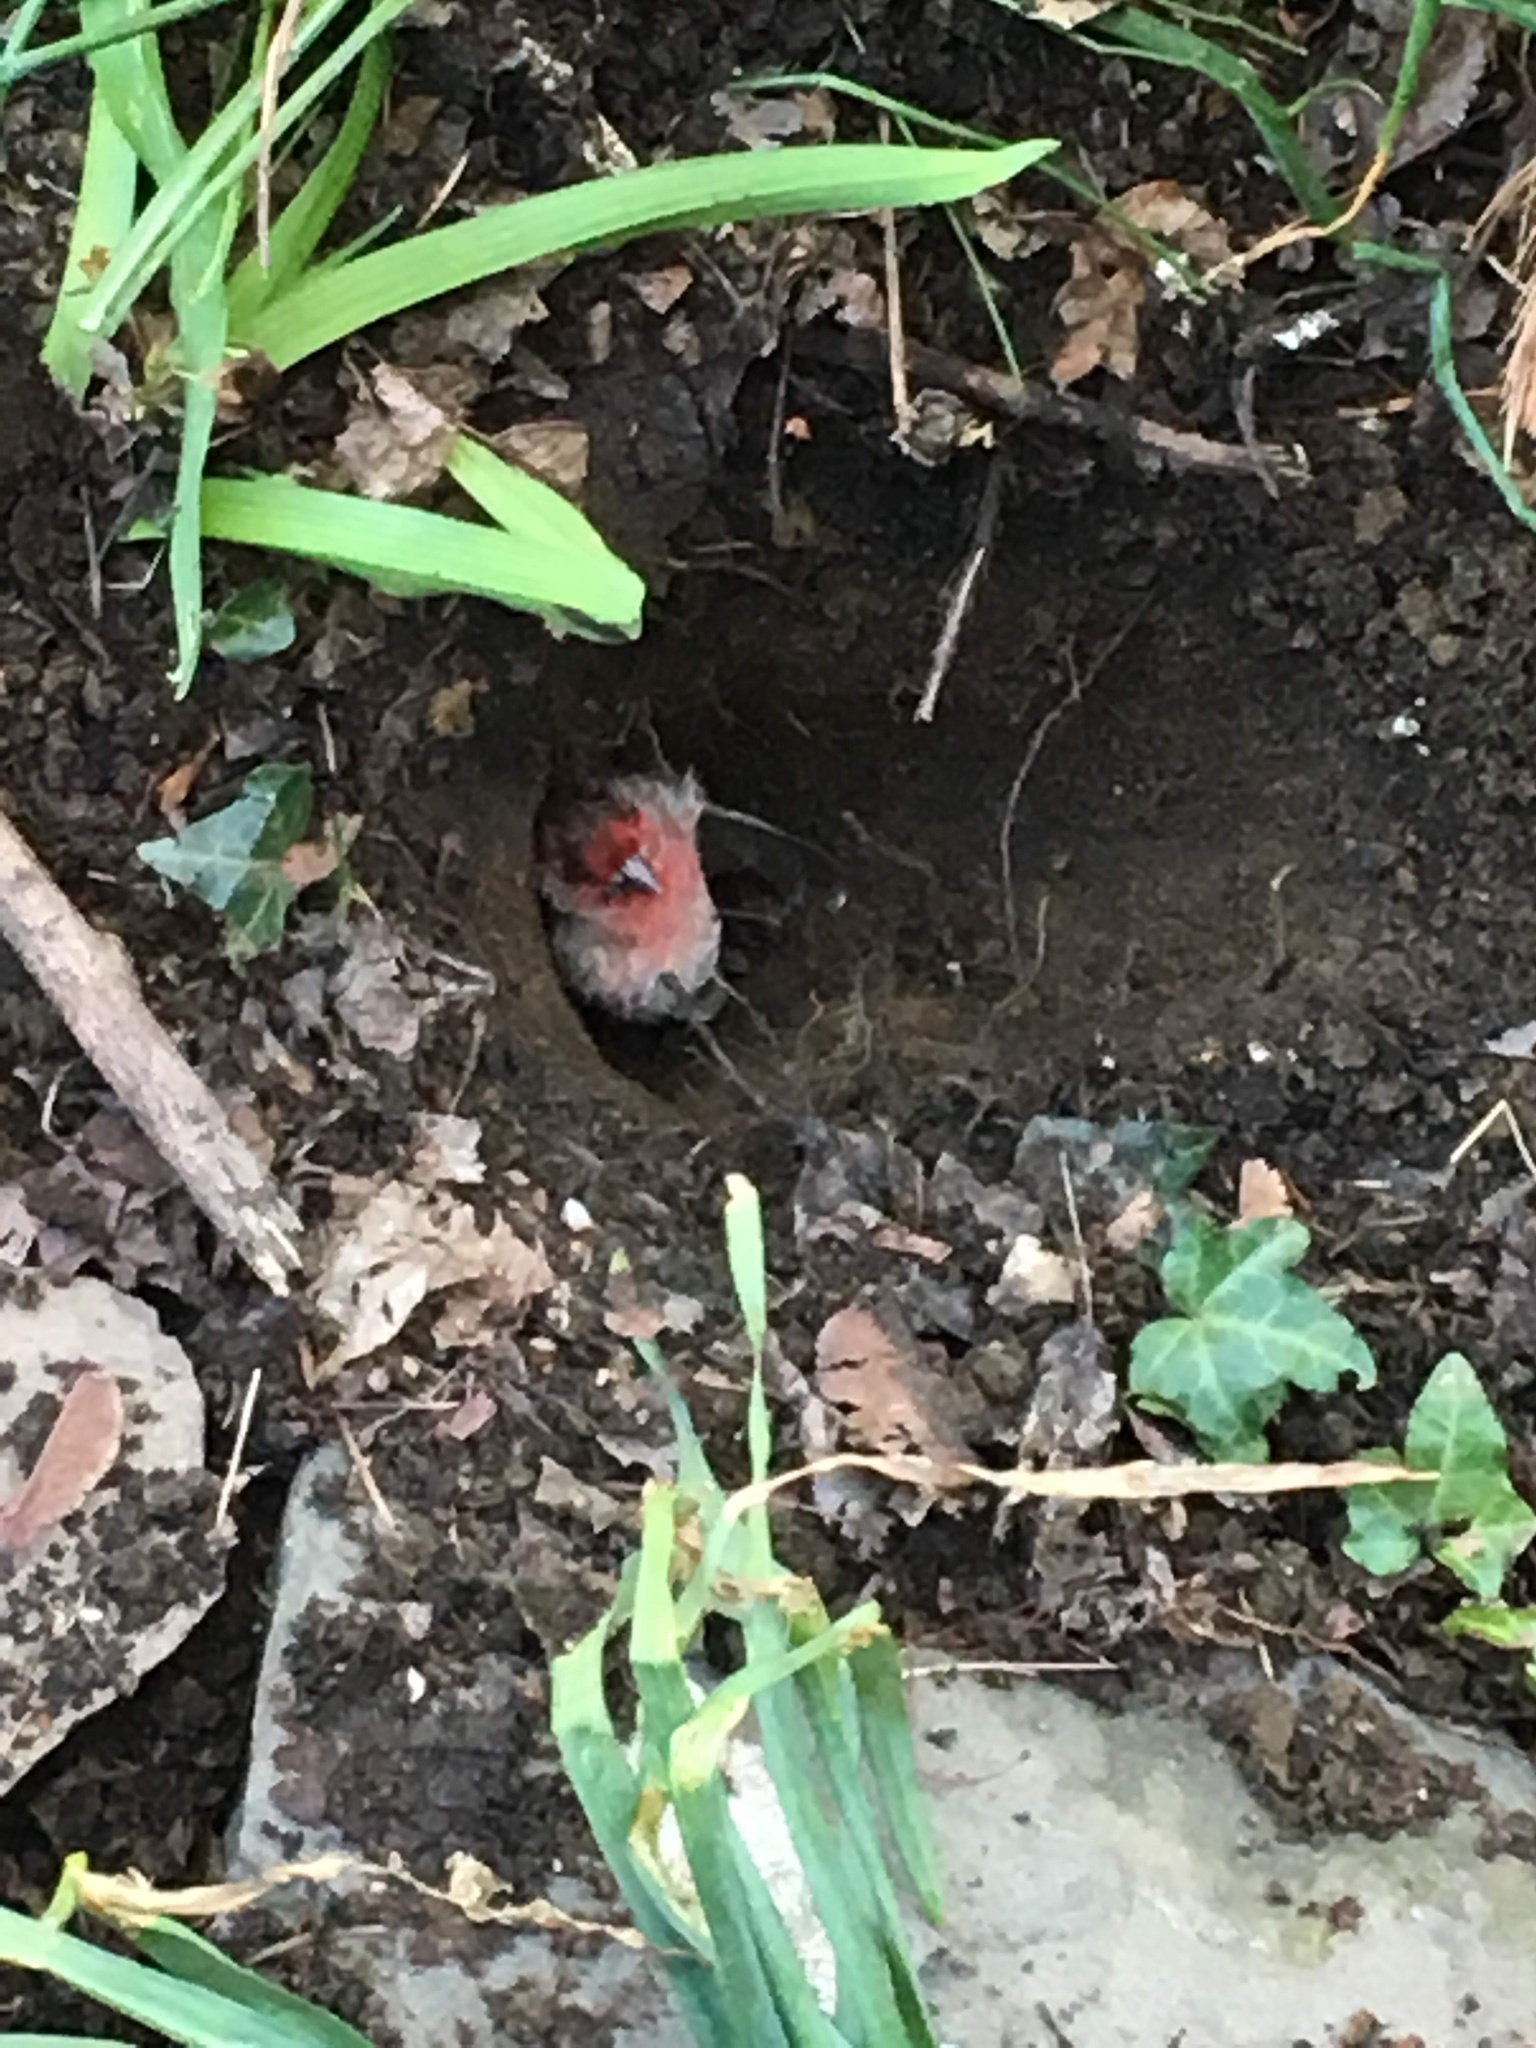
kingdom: Animalia
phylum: Chordata
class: Aves
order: Passeriformes
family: Fringillidae
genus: Haemorhous
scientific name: Haemorhous mexicanus
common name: House finch
